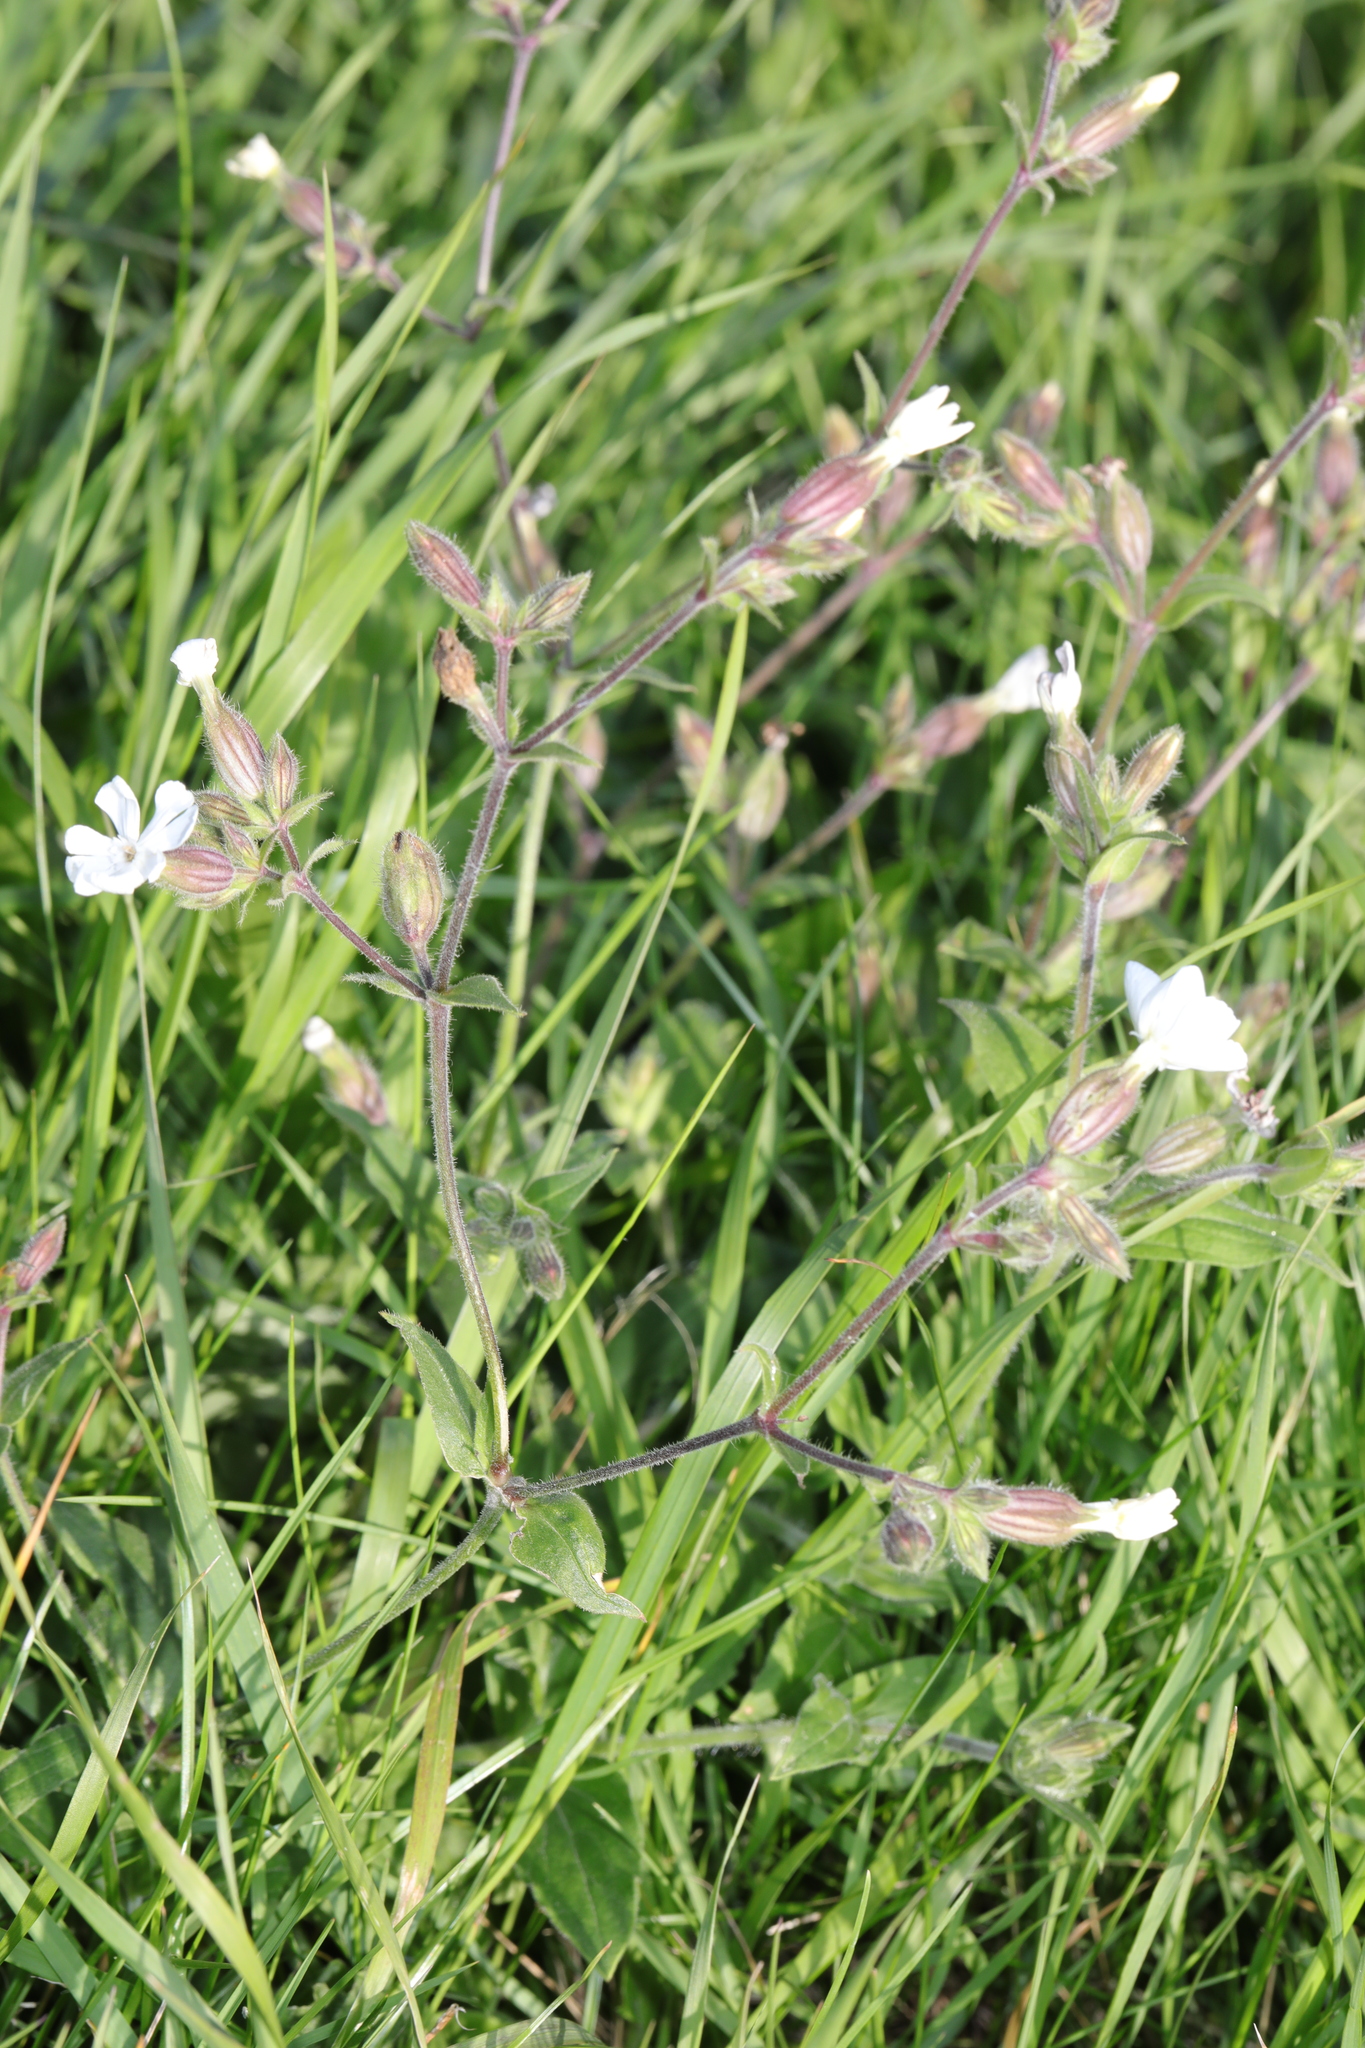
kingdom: Plantae
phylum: Tracheophyta
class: Magnoliopsida
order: Caryophyllales
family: Caryophyllaceae
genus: Silene
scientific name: Silene latifolia
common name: White campion
